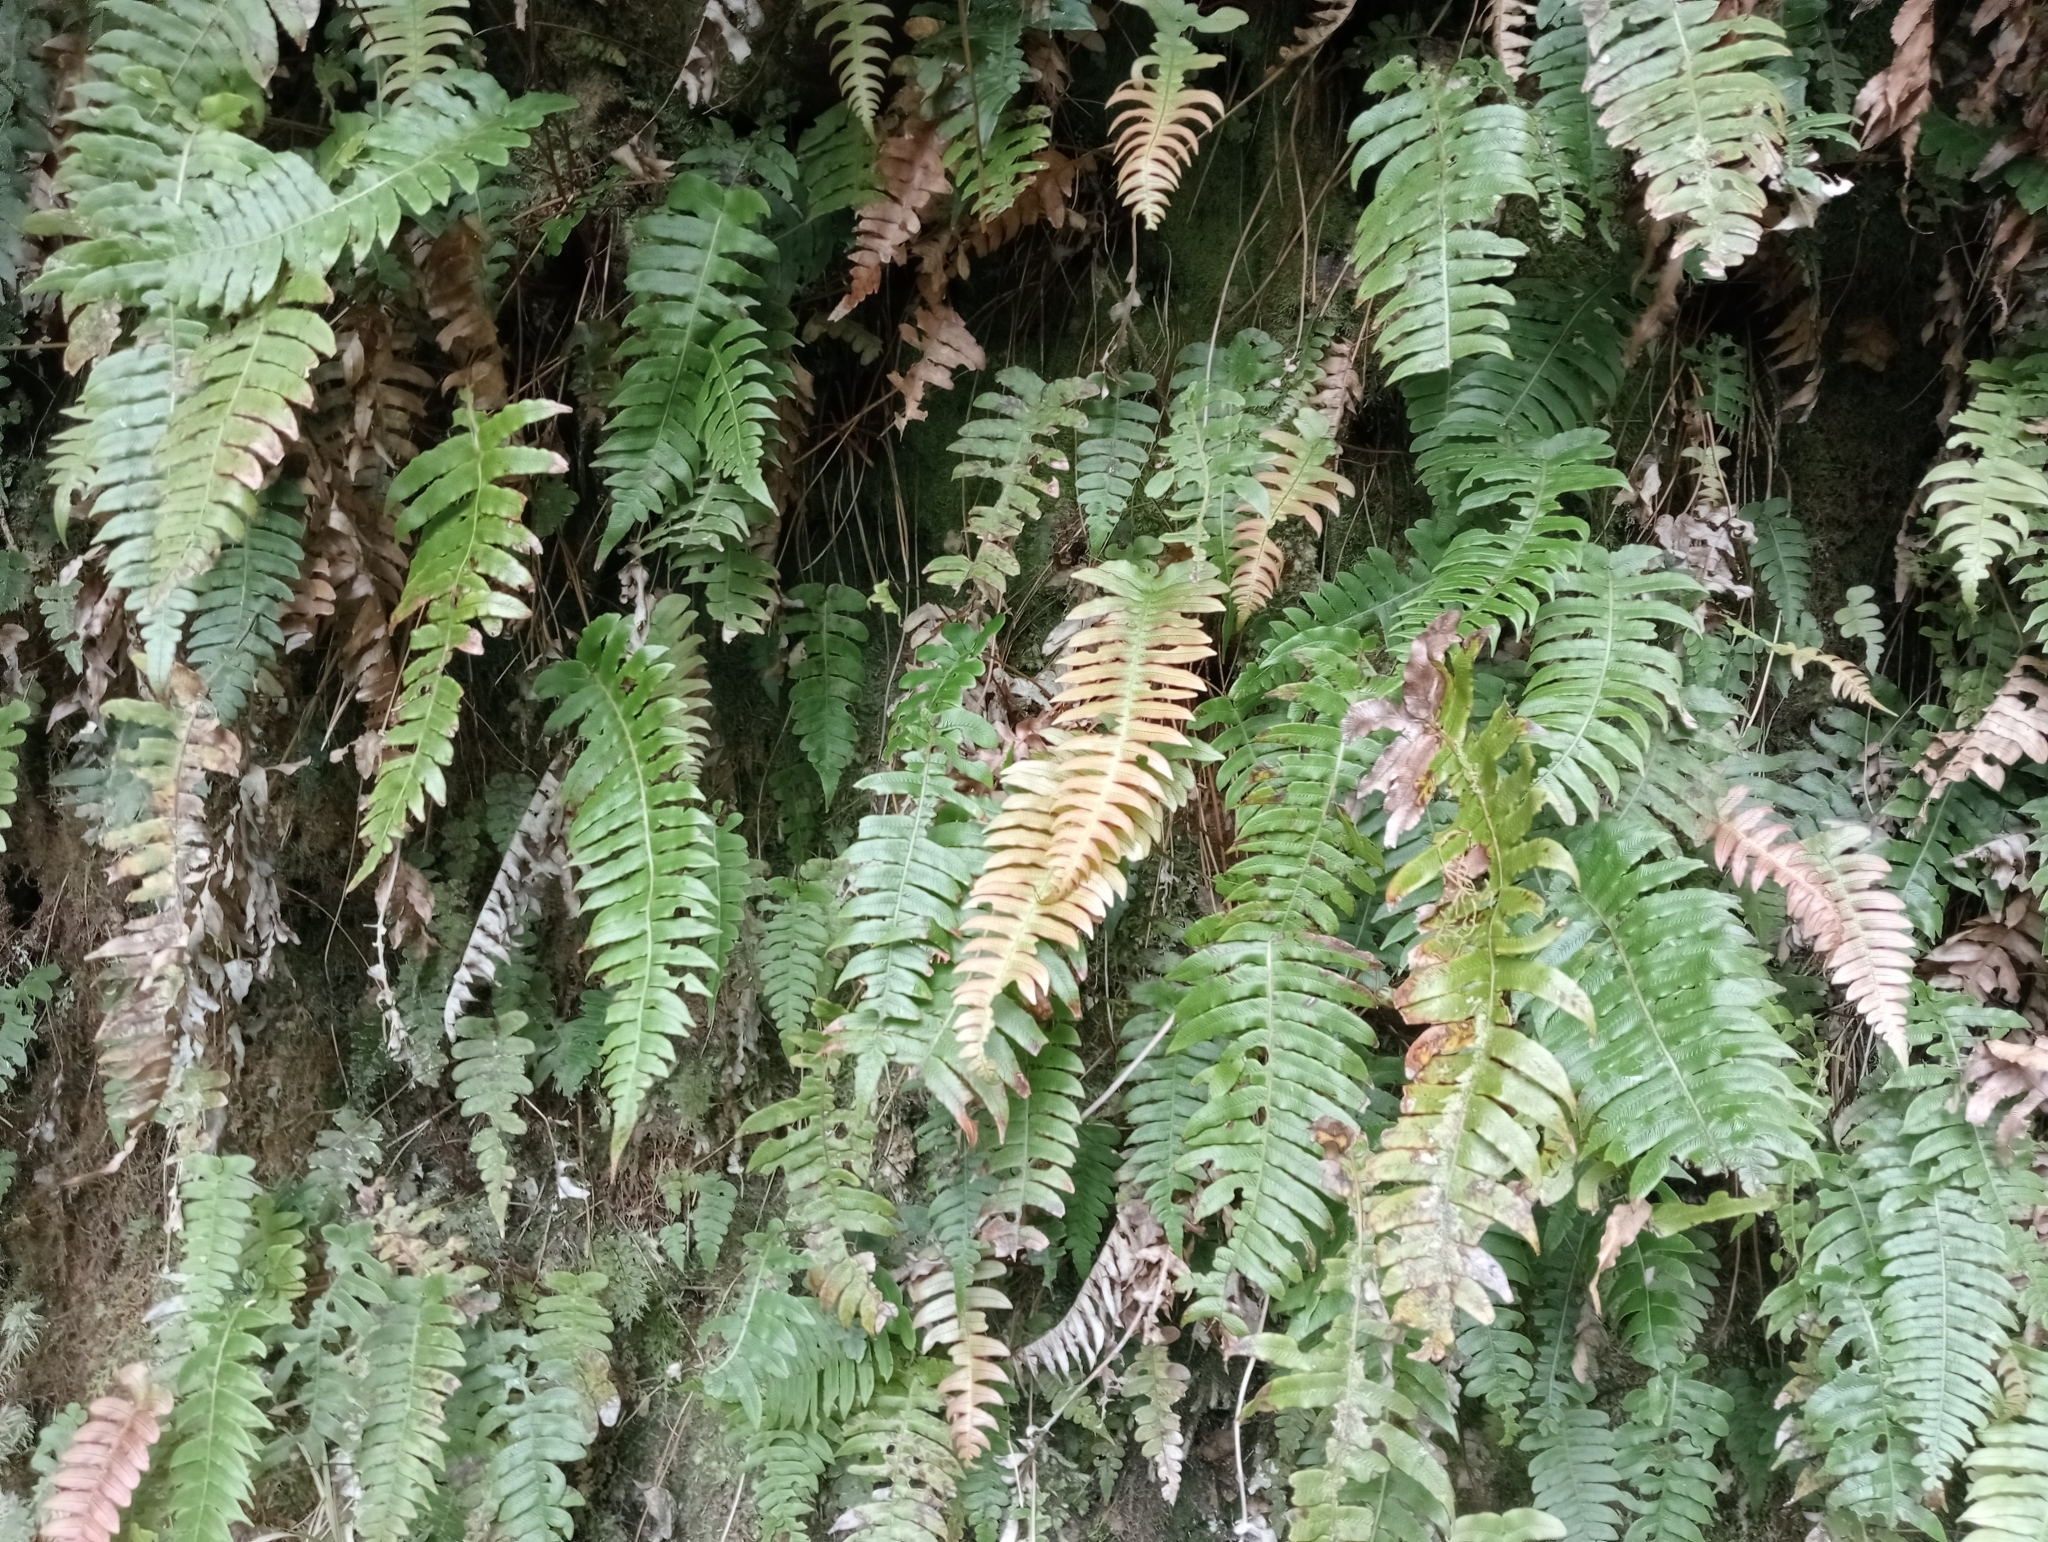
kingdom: Plantae
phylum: Tracheophyta
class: Polypodiopsida
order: Polypodiales
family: Blechnaceae
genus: Cranfillia
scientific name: Cranfillia deltoides
